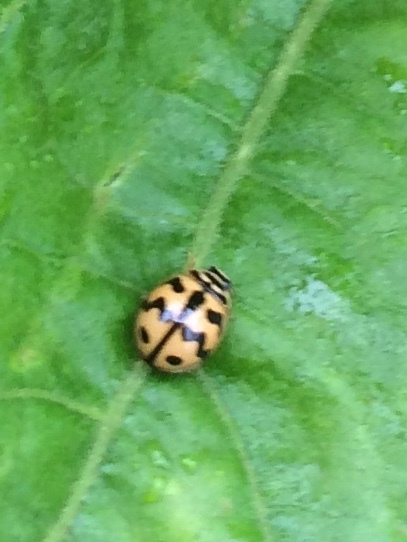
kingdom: Animalia
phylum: Arthropoda
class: Insecta
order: Coleoptera
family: Coccinellidae
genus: Cheilomenes
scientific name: Cheilomenes sexmaculata
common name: Ladybird beetle
